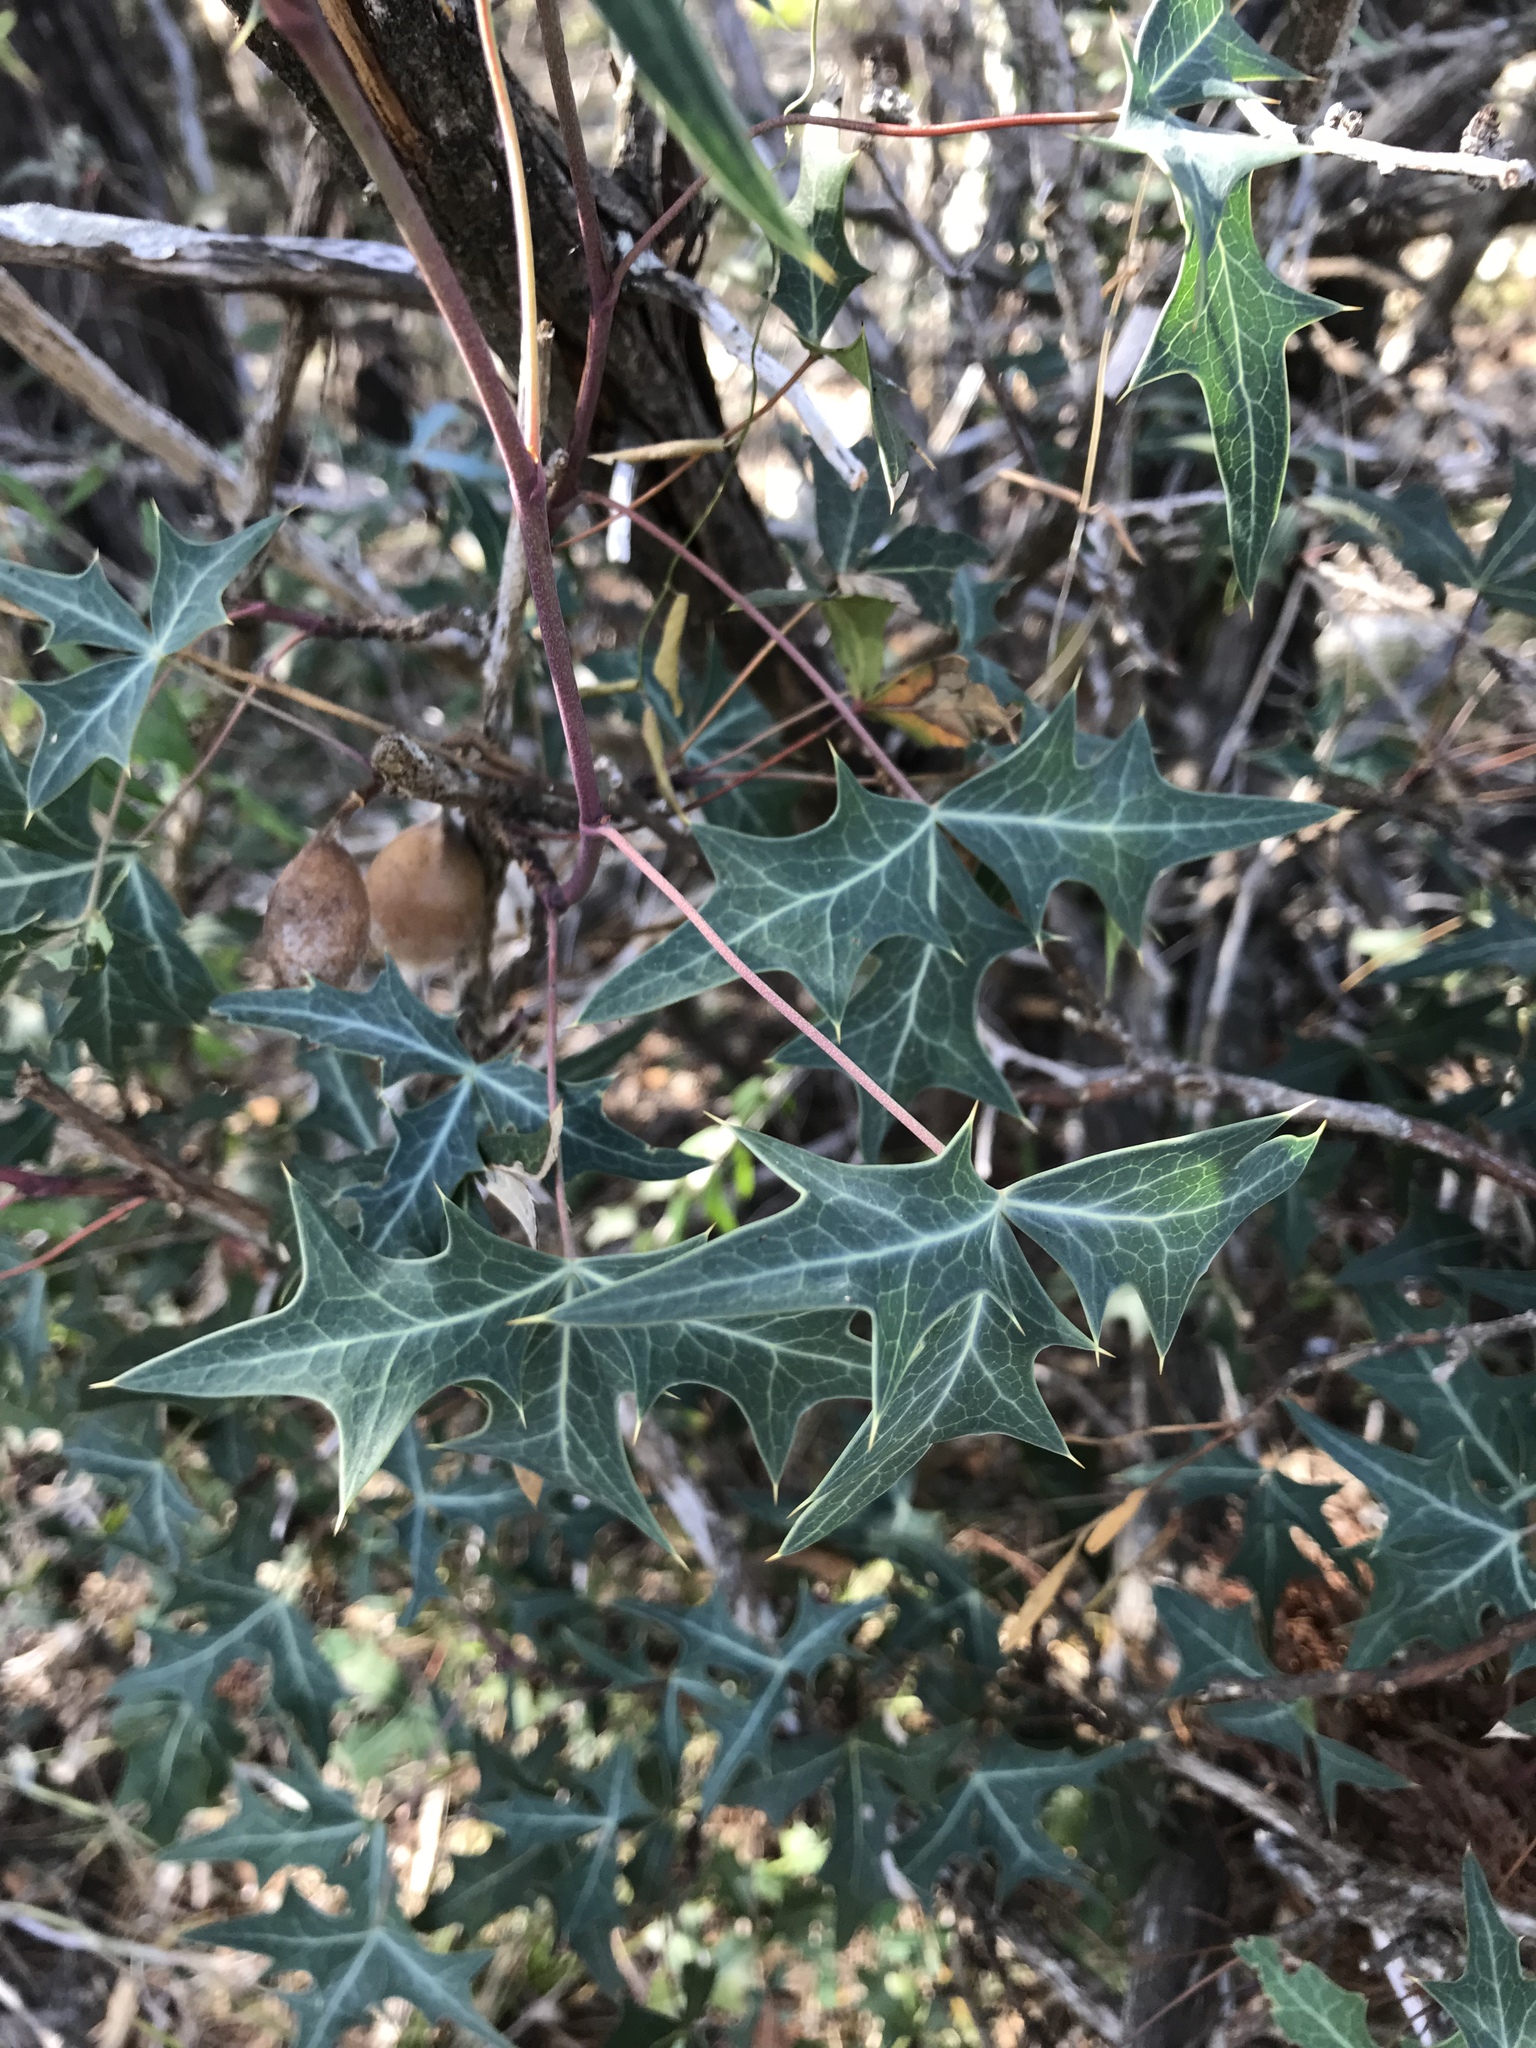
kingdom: Plantae
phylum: Tracheophyta
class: Magnoliopsida
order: Ranunculales
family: Berberidaceae
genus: Alloberberis
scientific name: Alloberberis trifoliolata
